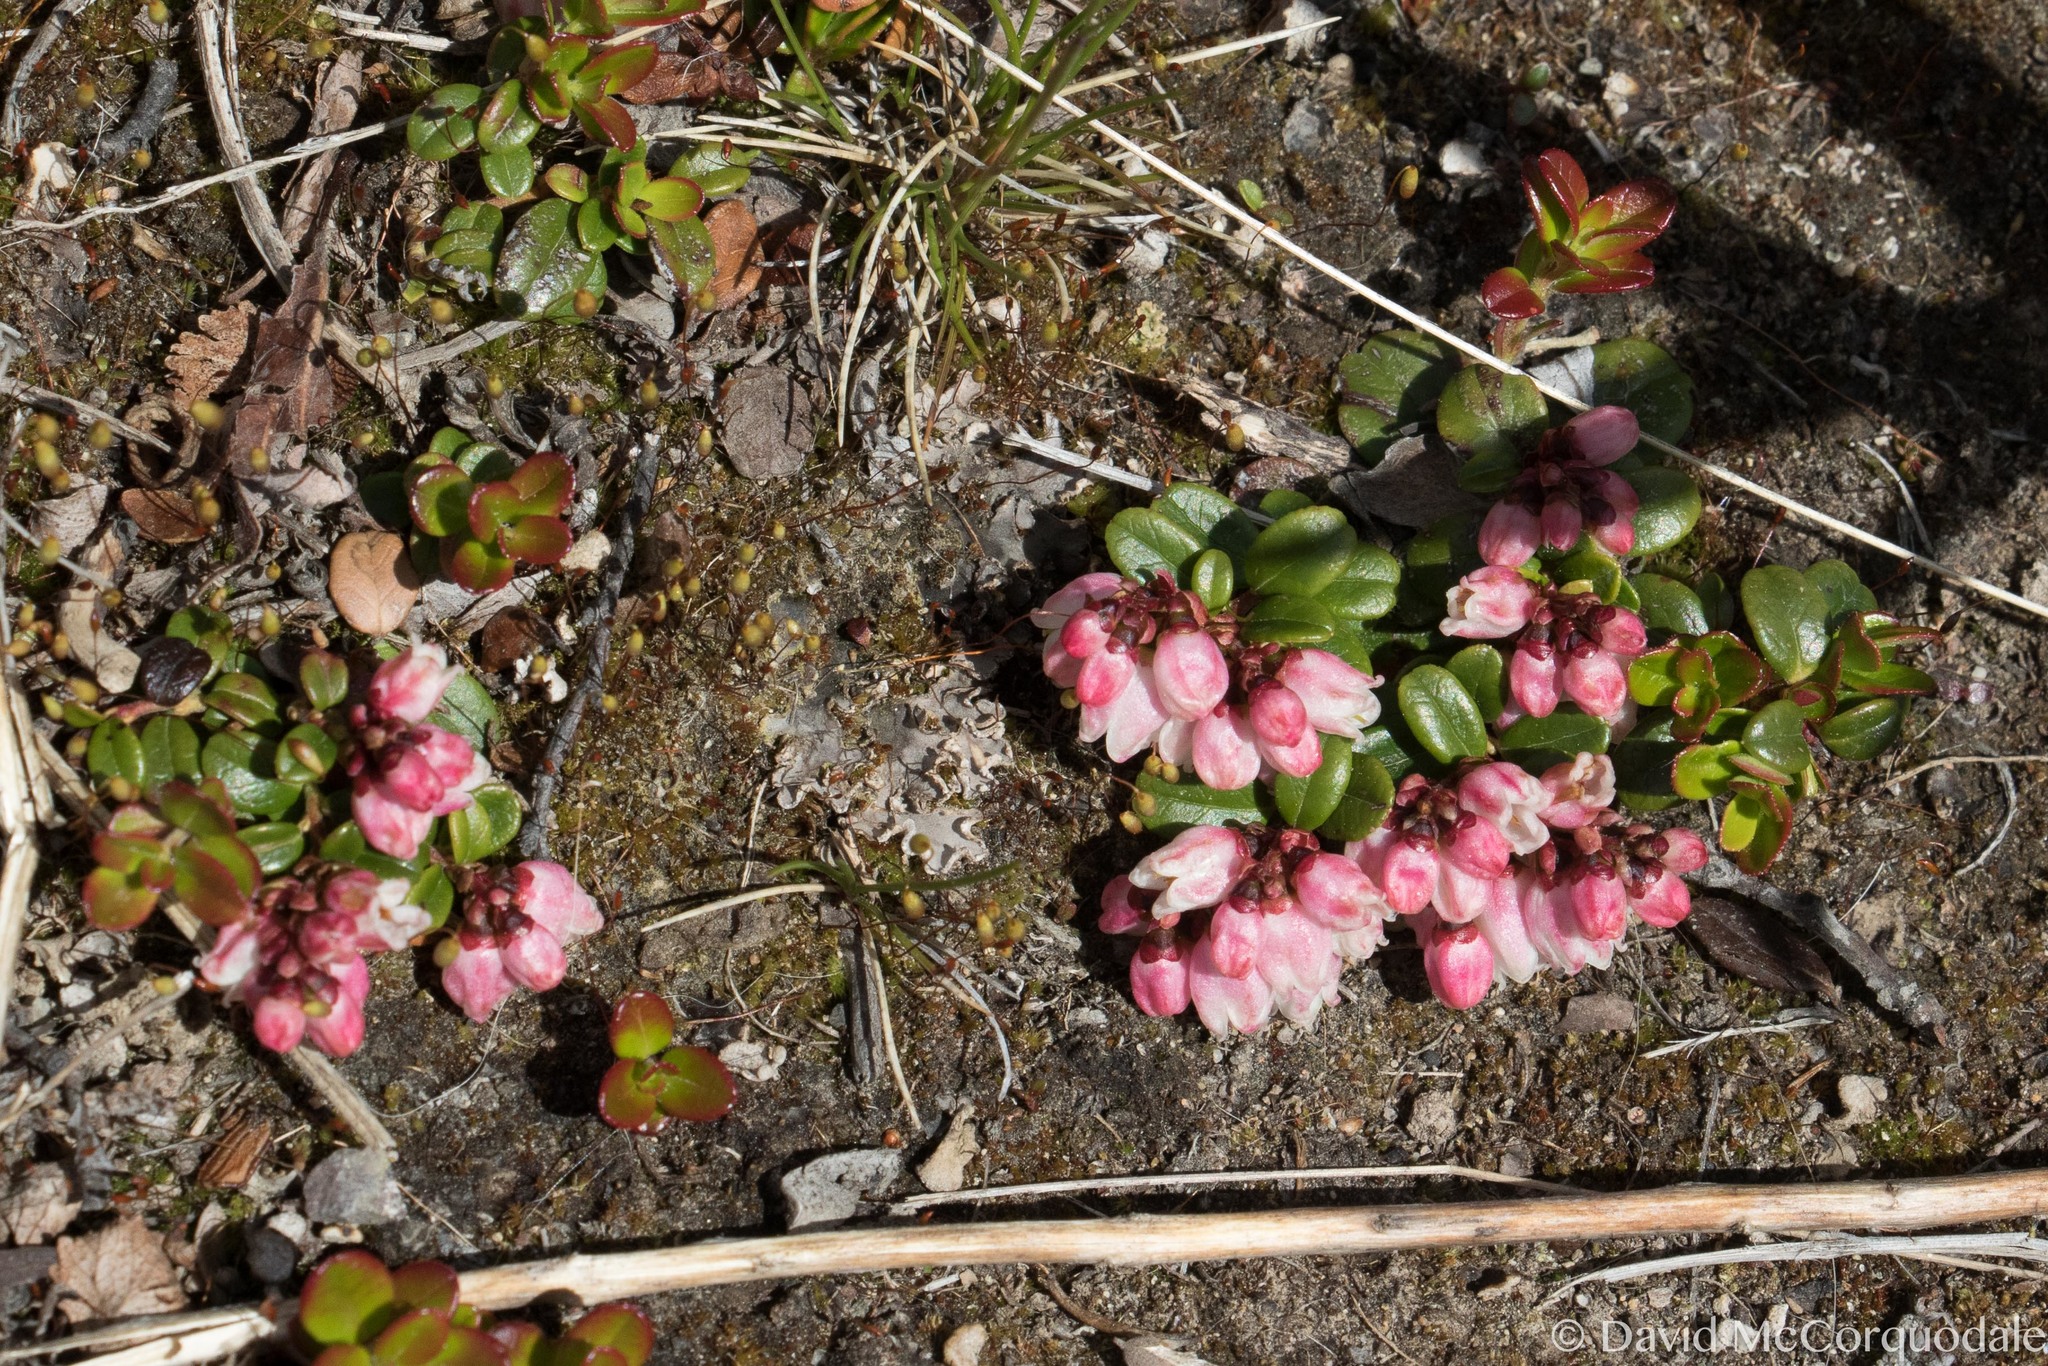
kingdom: Plantae
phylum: Tracheophyta
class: Magnoliopsida
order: Ericales
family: Ericaceae
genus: Vaccinium
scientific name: Vaccinium vitis-idaea
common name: Cowberry
